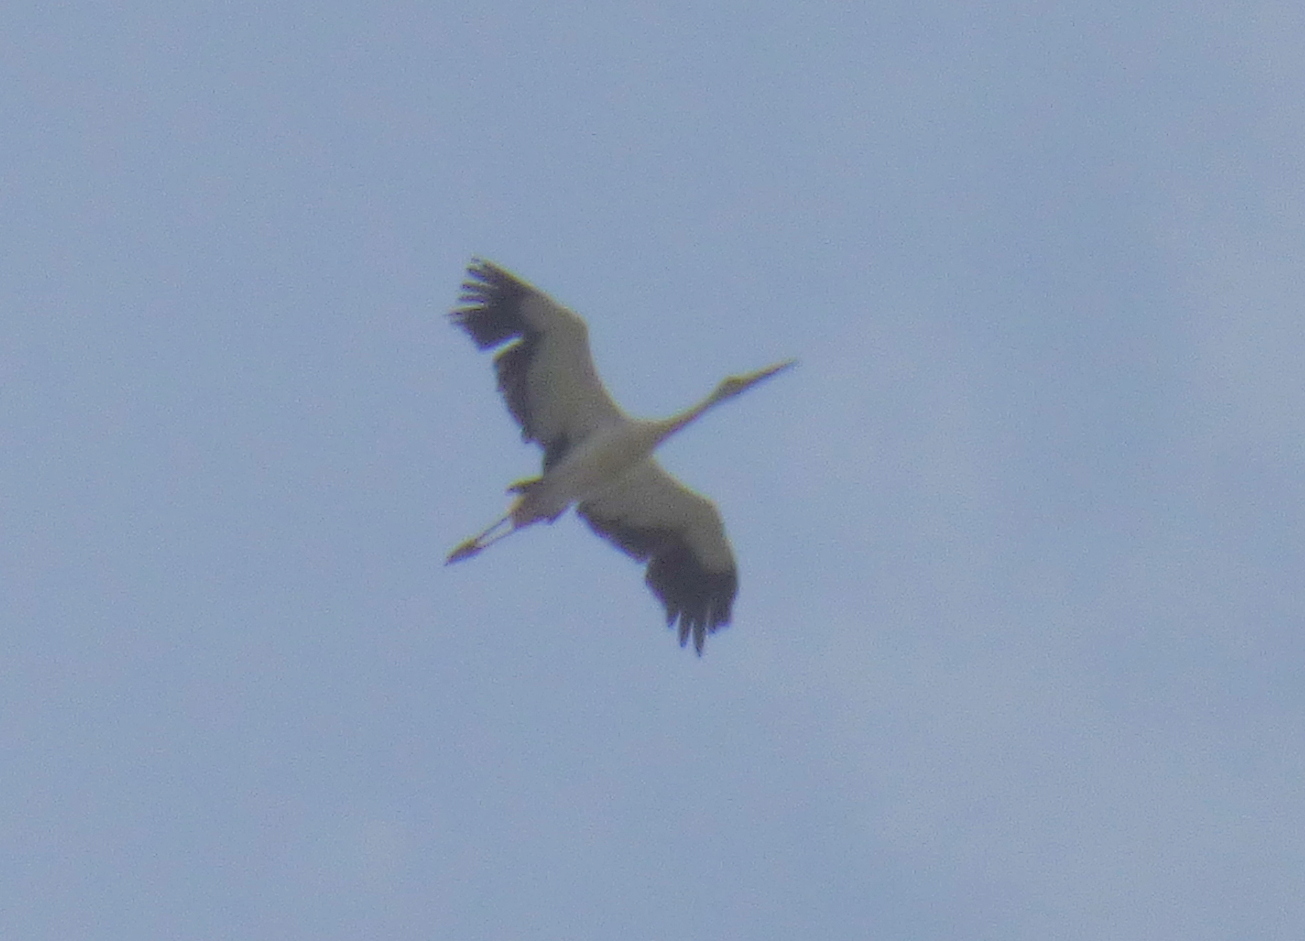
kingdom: Animalia
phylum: Chordata
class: Aves
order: Ciconiiformes
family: Ciconiidae
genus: Ciconia
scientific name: Ciconia maguari
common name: Maguari stork
